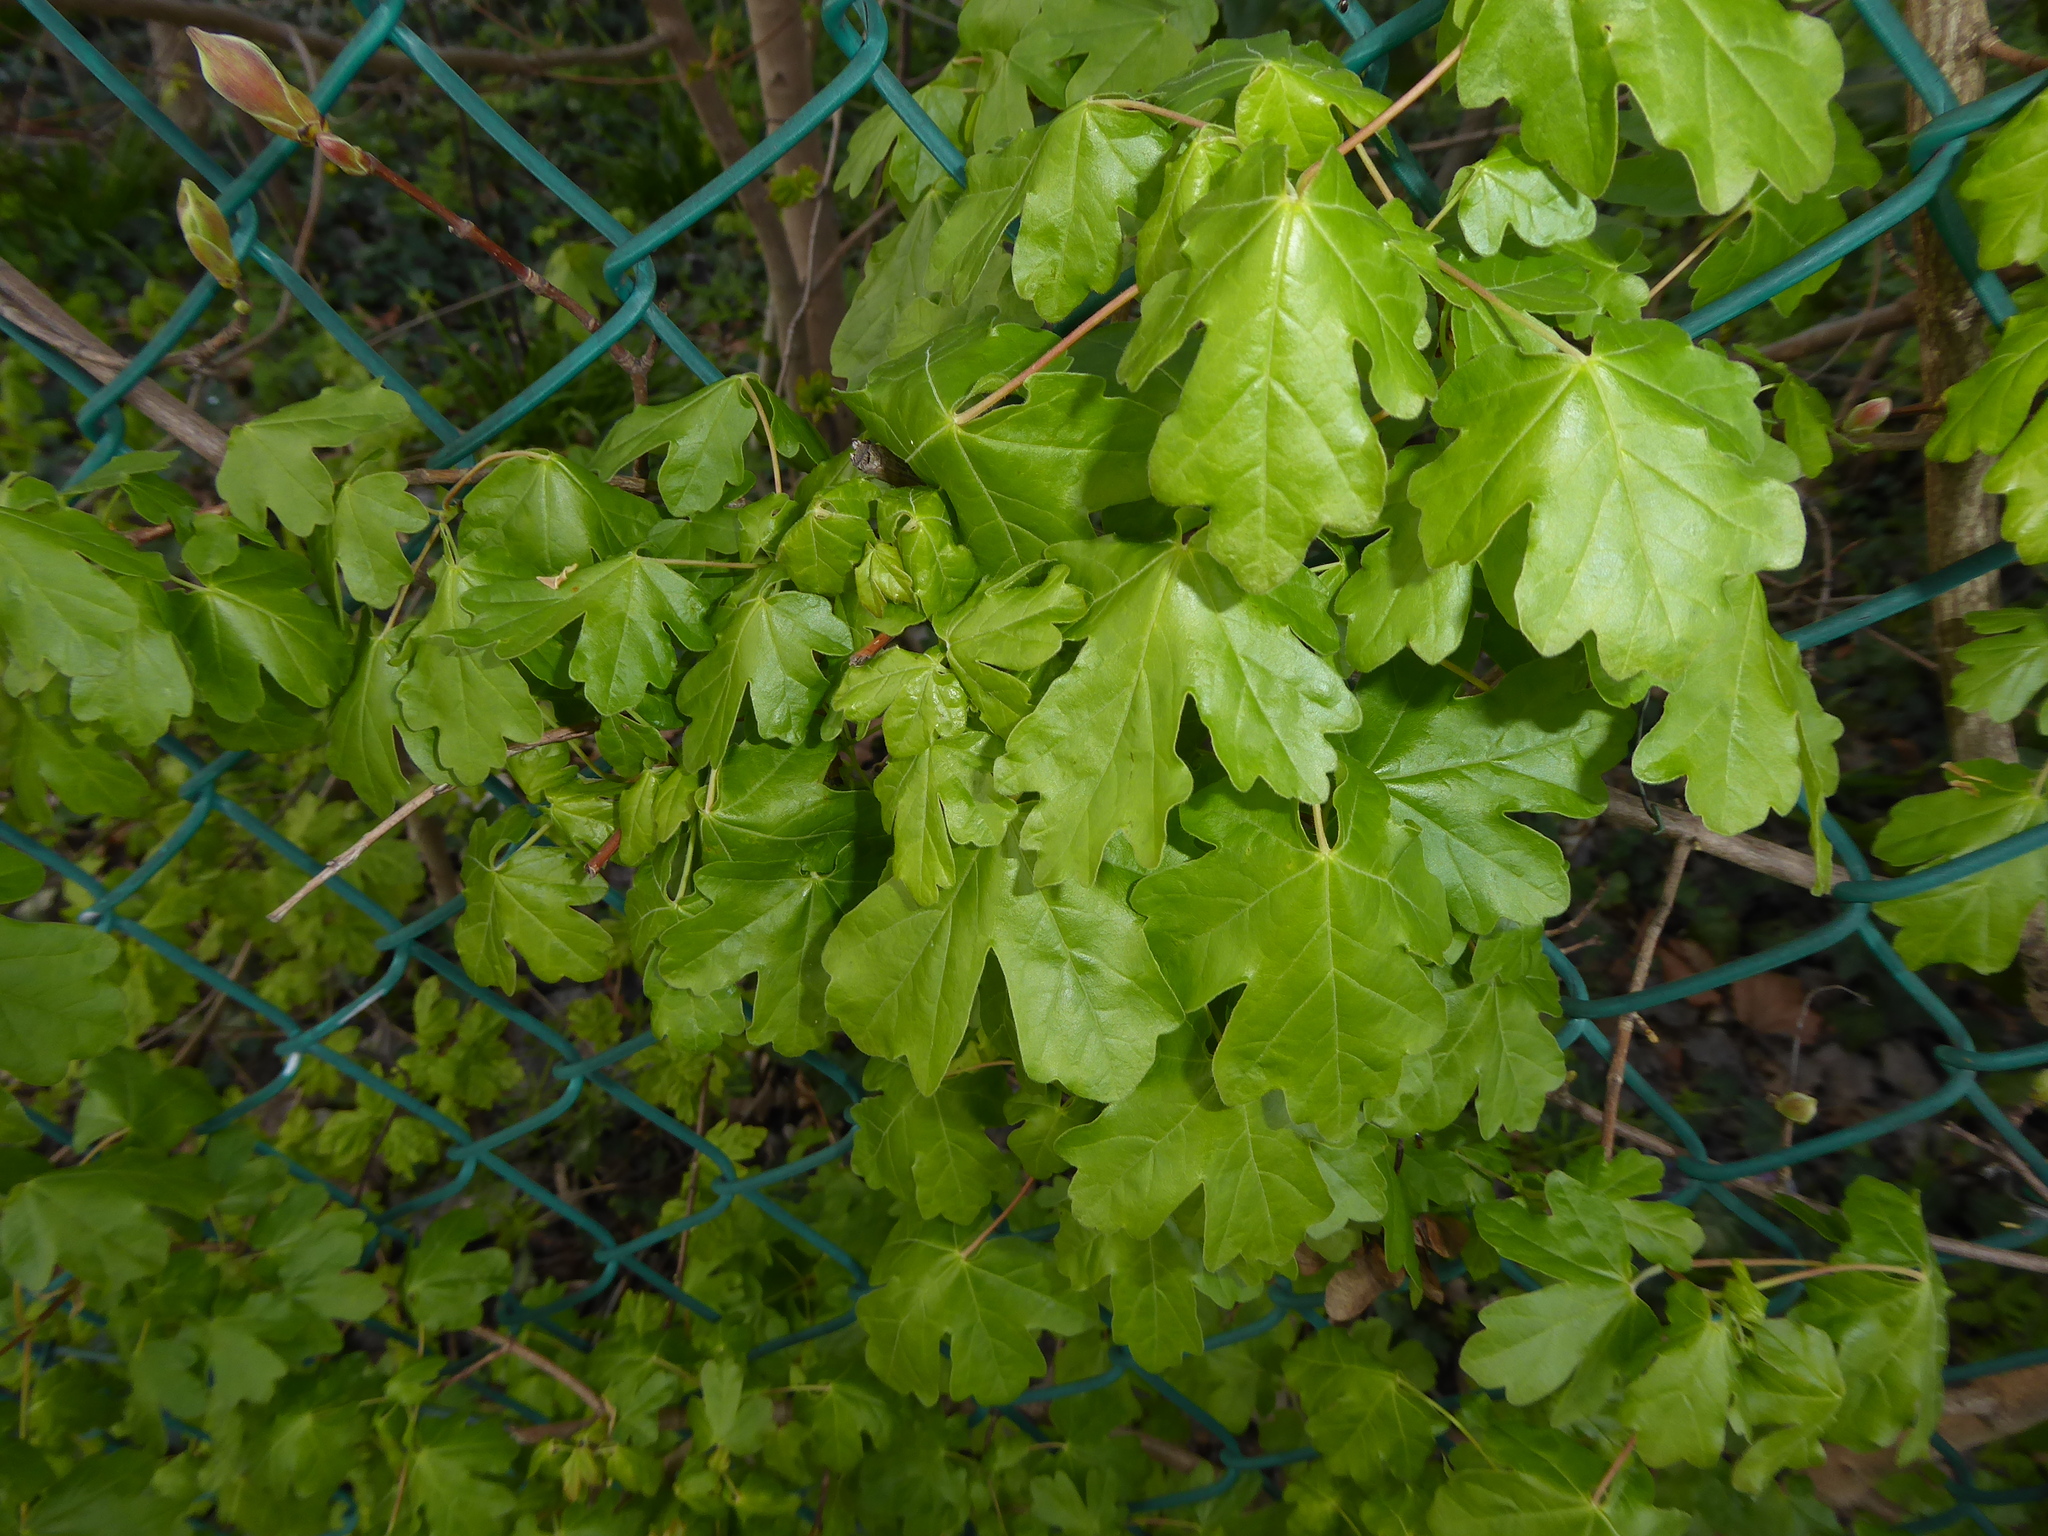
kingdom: Plantae
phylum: Tracheophyta
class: Magnoliopsida
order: Sapindales
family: Sapindaceae
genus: Acer
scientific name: Acer campestre
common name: Field maple
